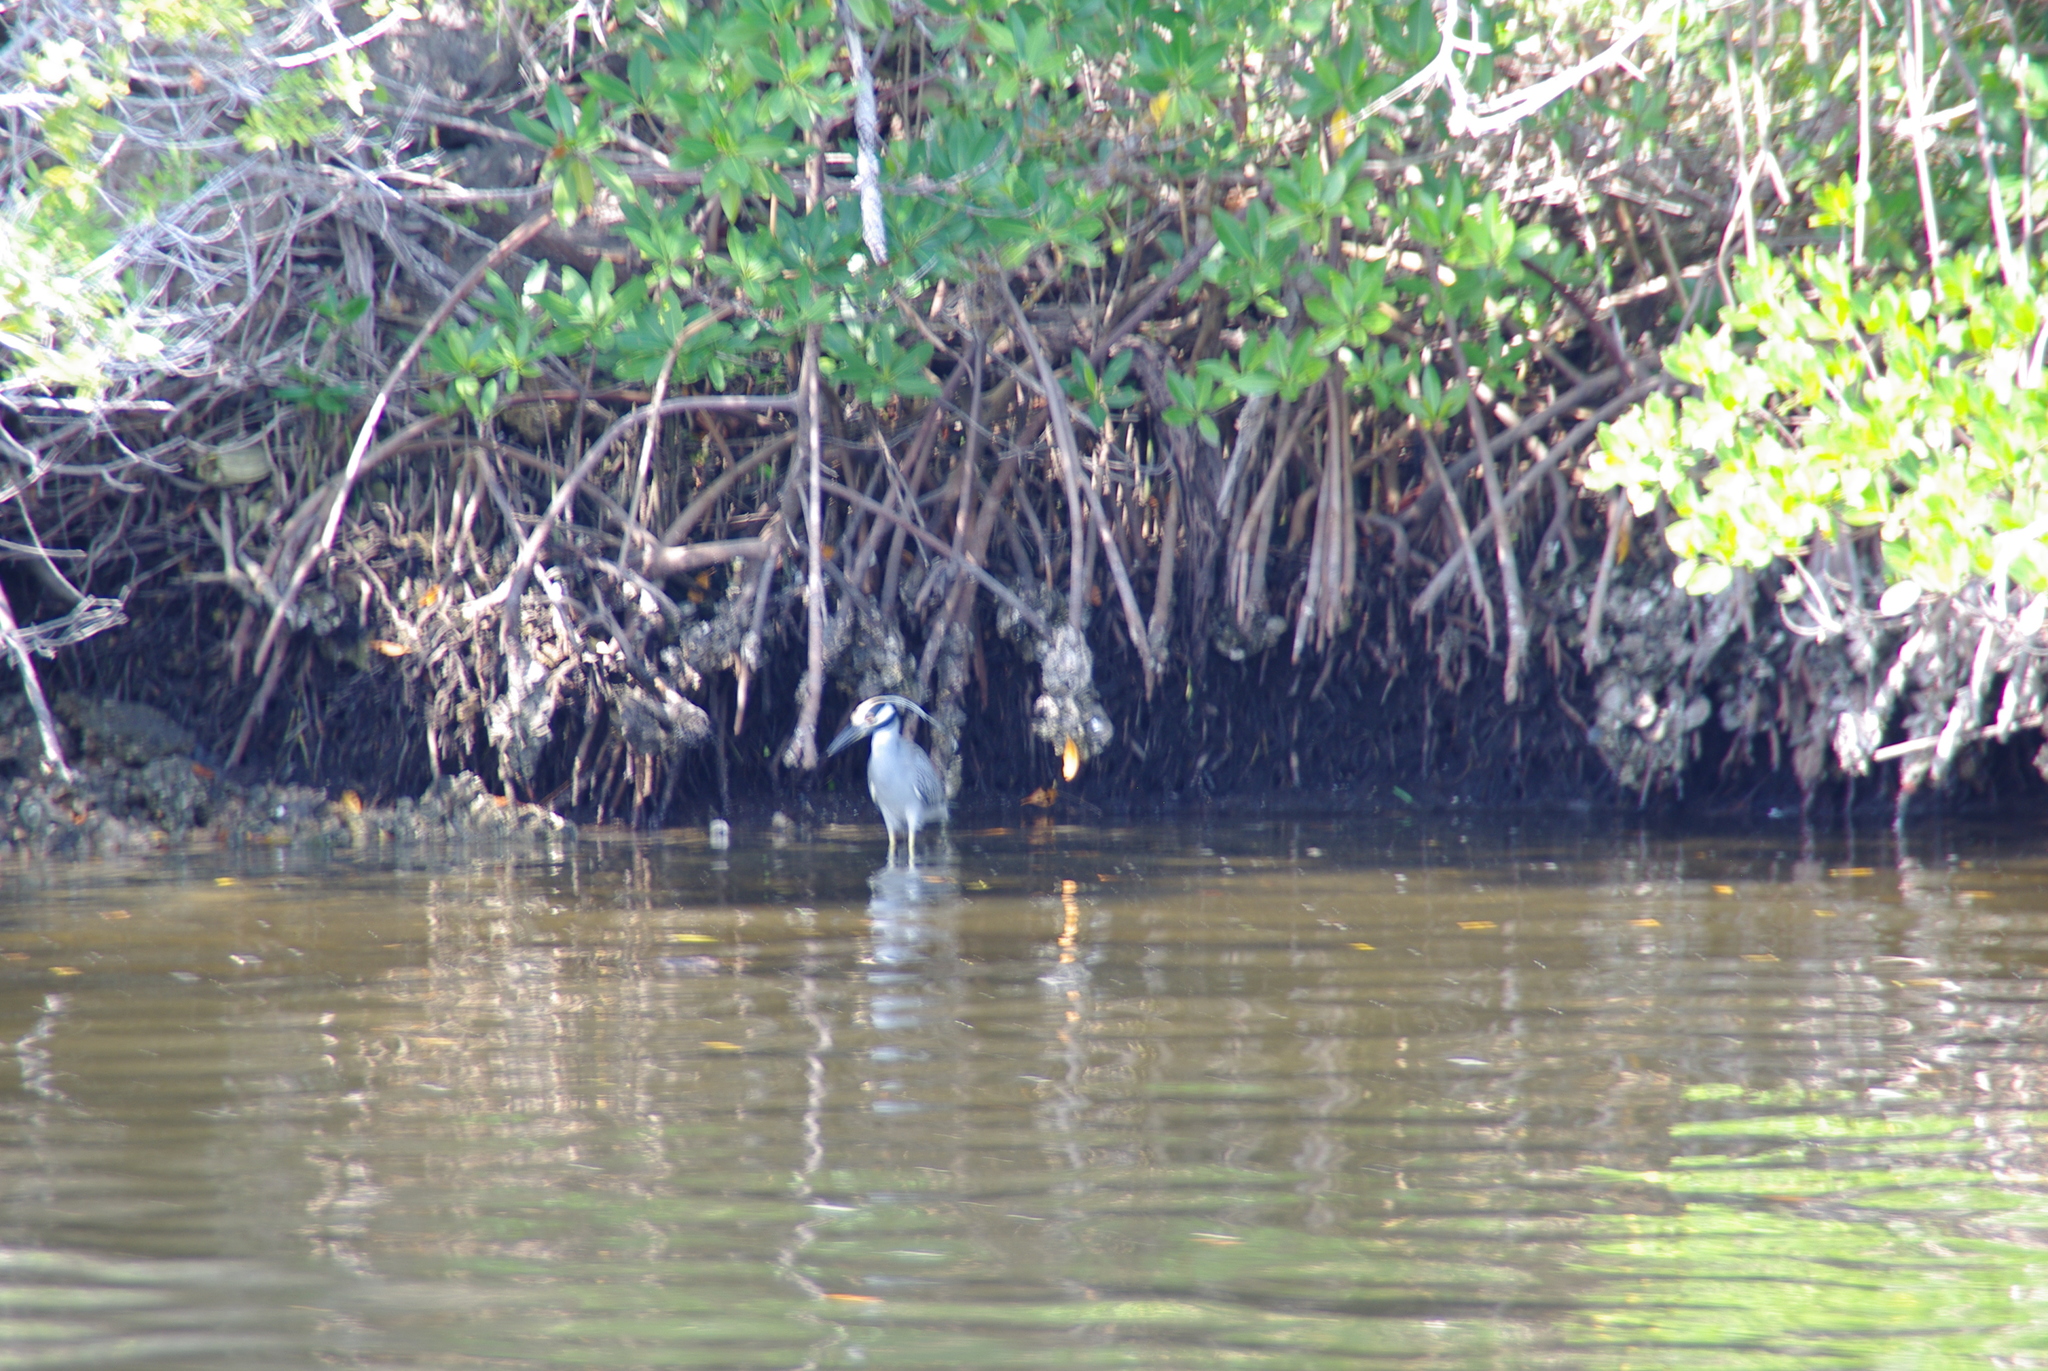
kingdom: Animalia
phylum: Chordata
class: Aves
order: Pelecaniformes
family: Ardeidae
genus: Nyctanassa
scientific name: Nyctanassa violacea
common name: Yellow-crowned night heron
